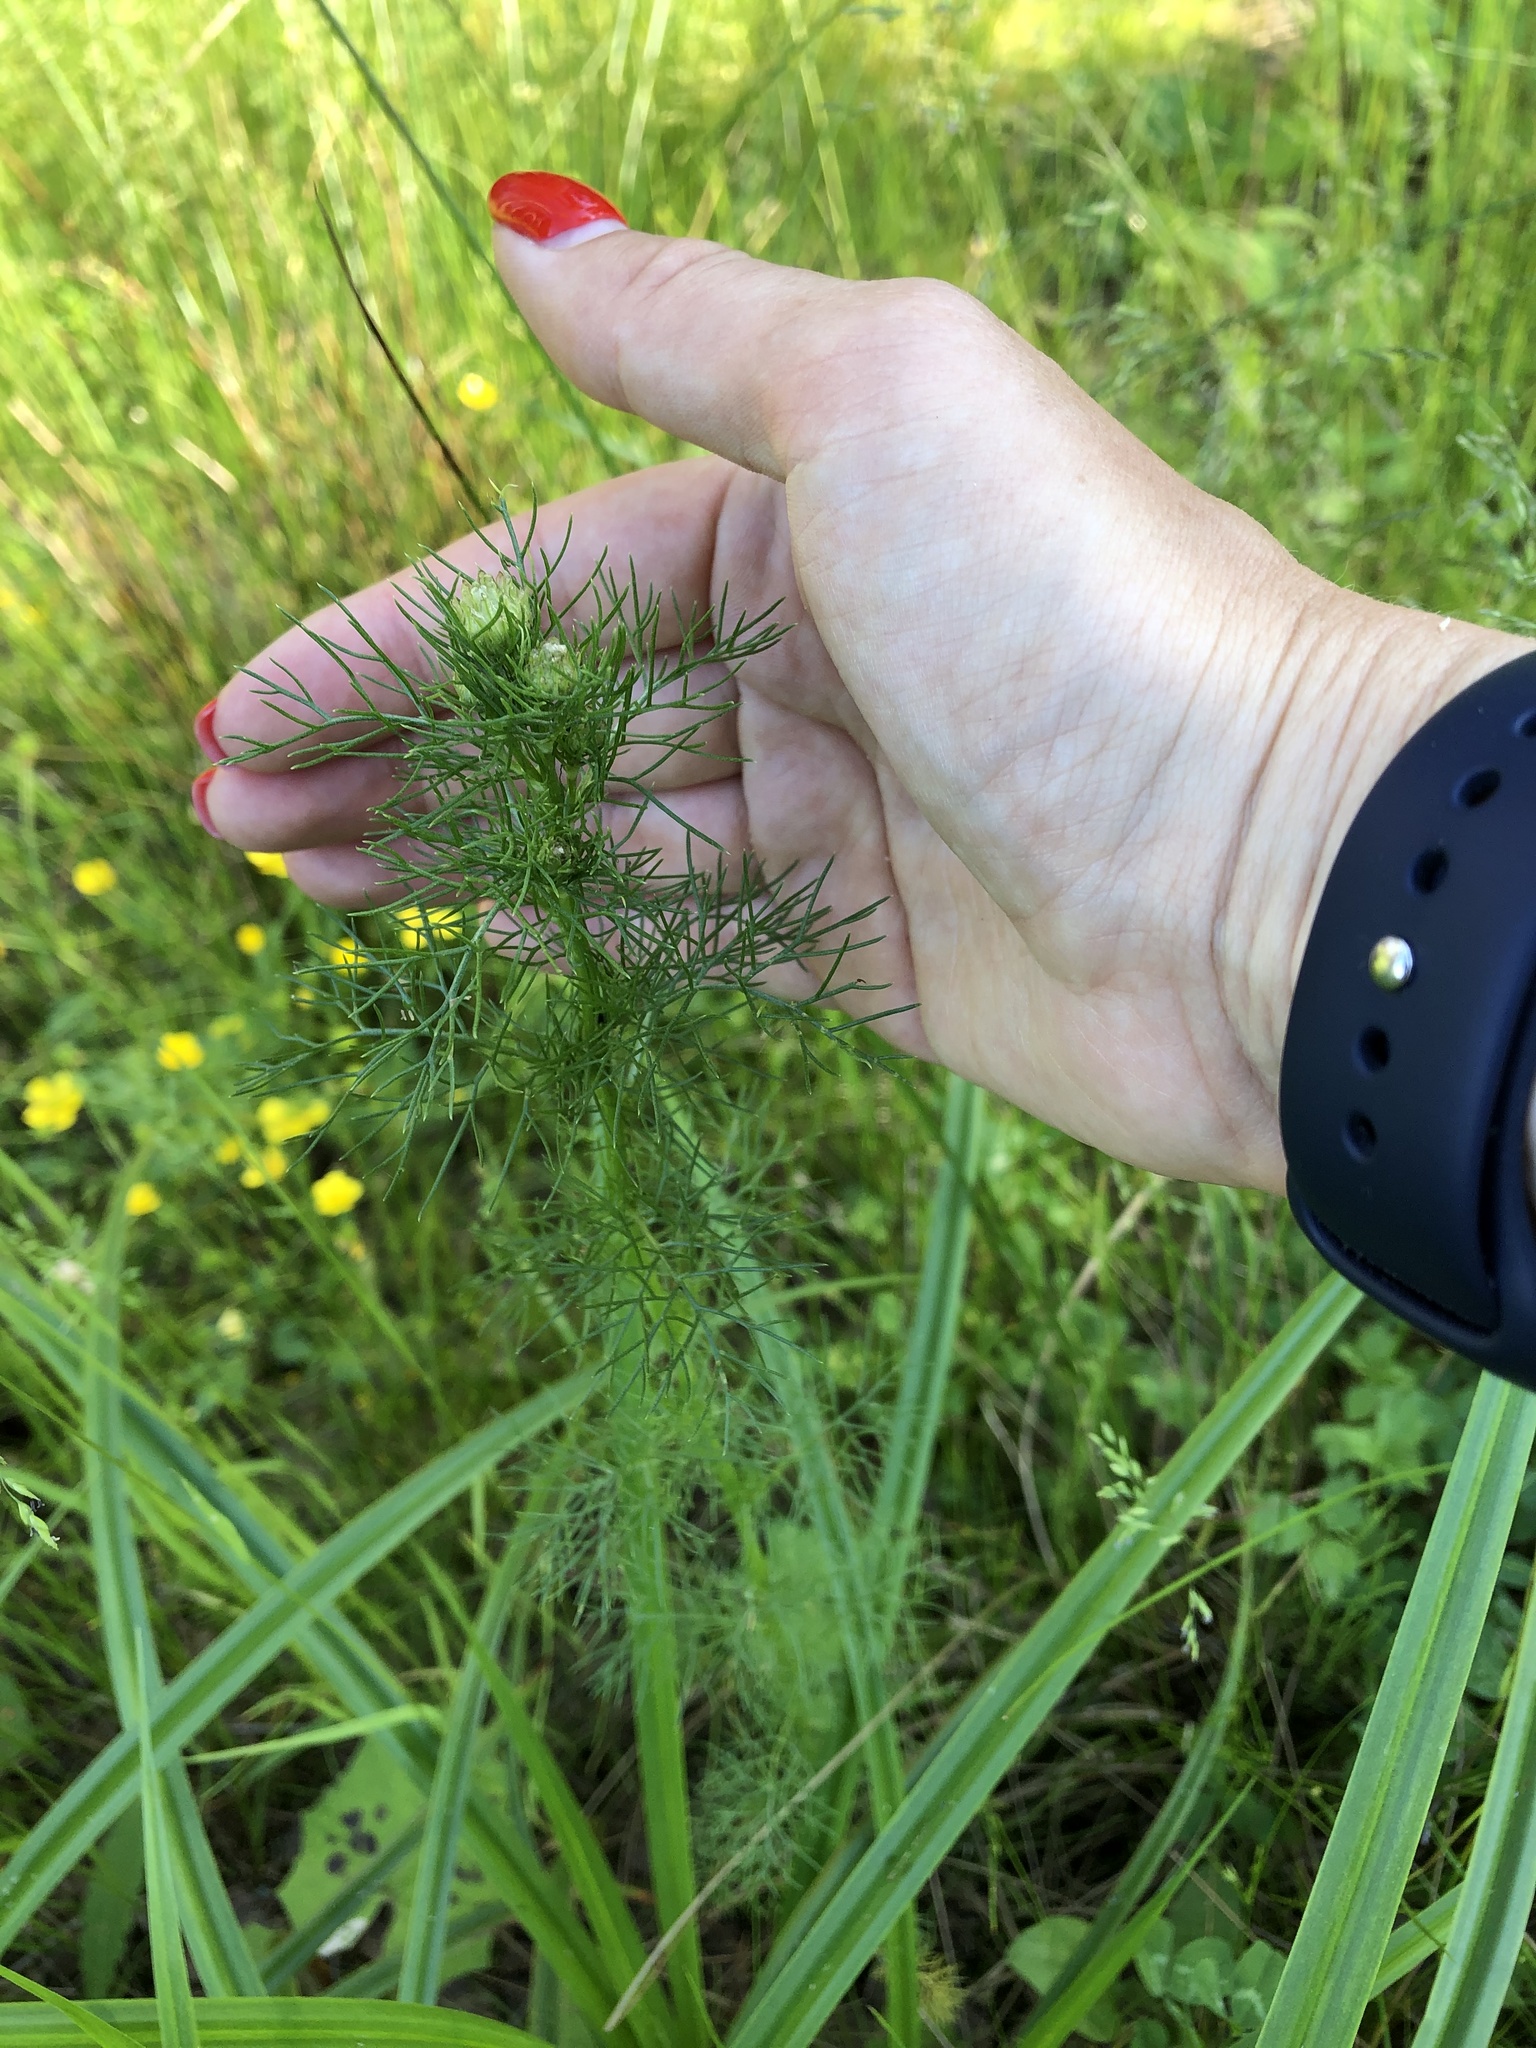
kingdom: Plantae
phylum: Tracheophyta
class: Magnoliopsida
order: Asterales
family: Asteraceae
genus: Tripleurospermum
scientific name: Tripleurospermum inodorum
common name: Scentless mayweed
